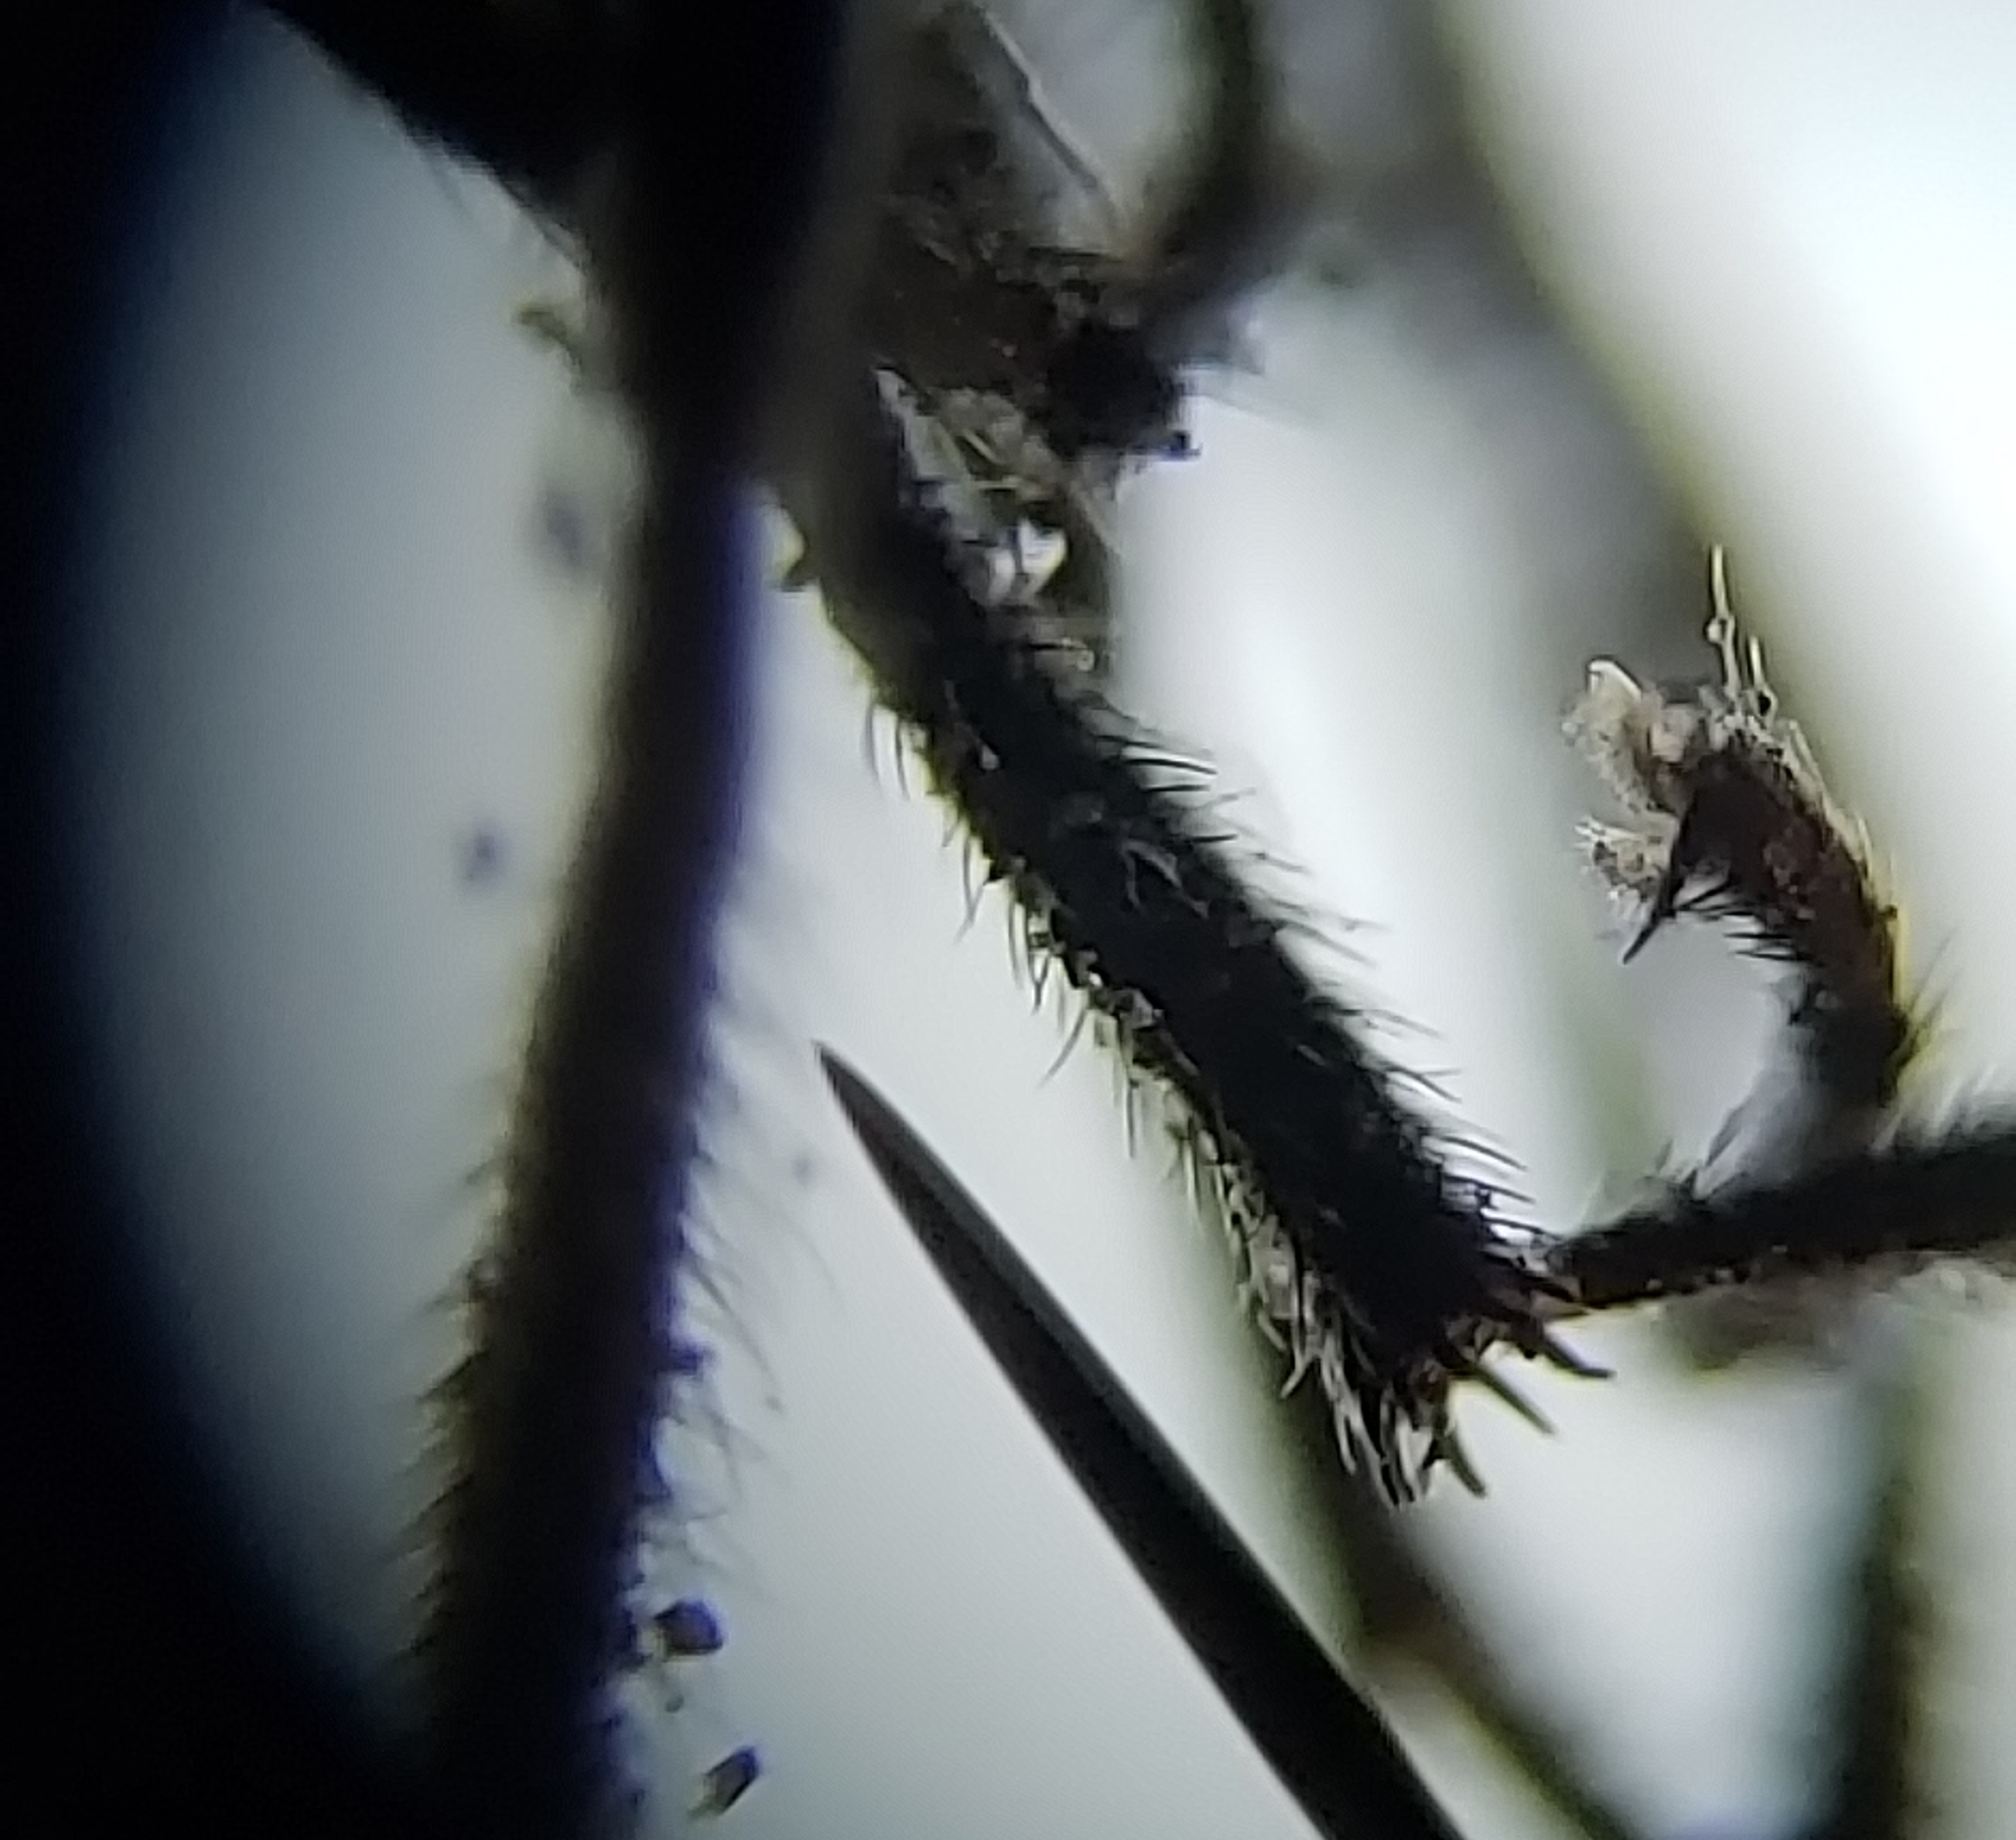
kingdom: Animalia
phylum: Arthropoda
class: Insecta
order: Diptera
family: Bibionidae
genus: Dilophus
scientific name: Dilophus orbatus
